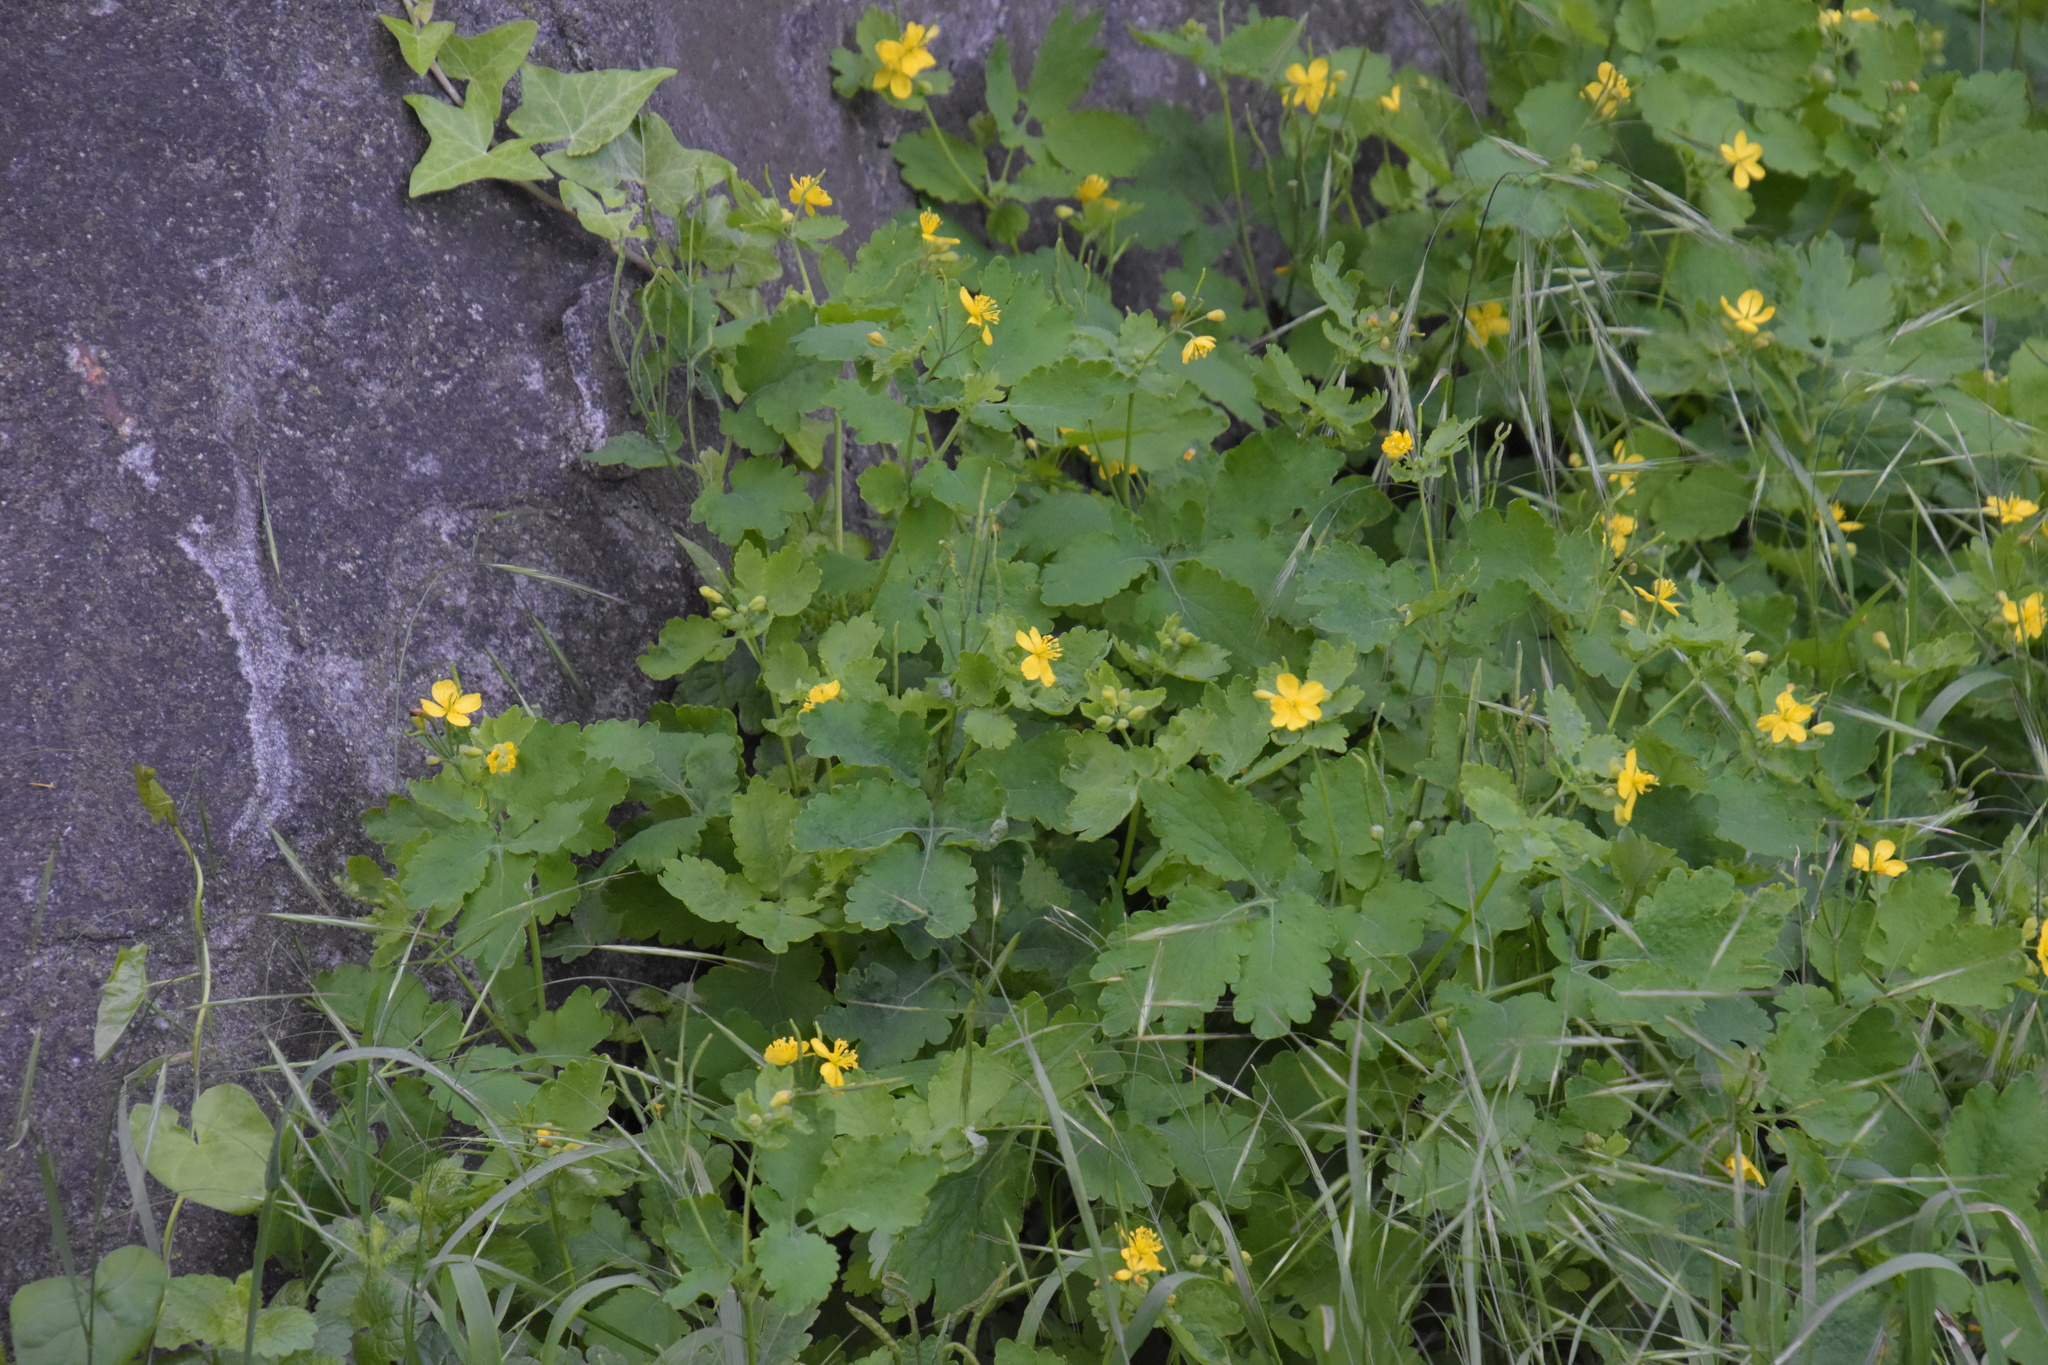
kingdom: Plantae
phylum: Tracheophyta
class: Magnoliopsida
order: Ranunculales
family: Papaveraceae
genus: Chelidonium
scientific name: Chelidonium majus
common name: Greater celandine
